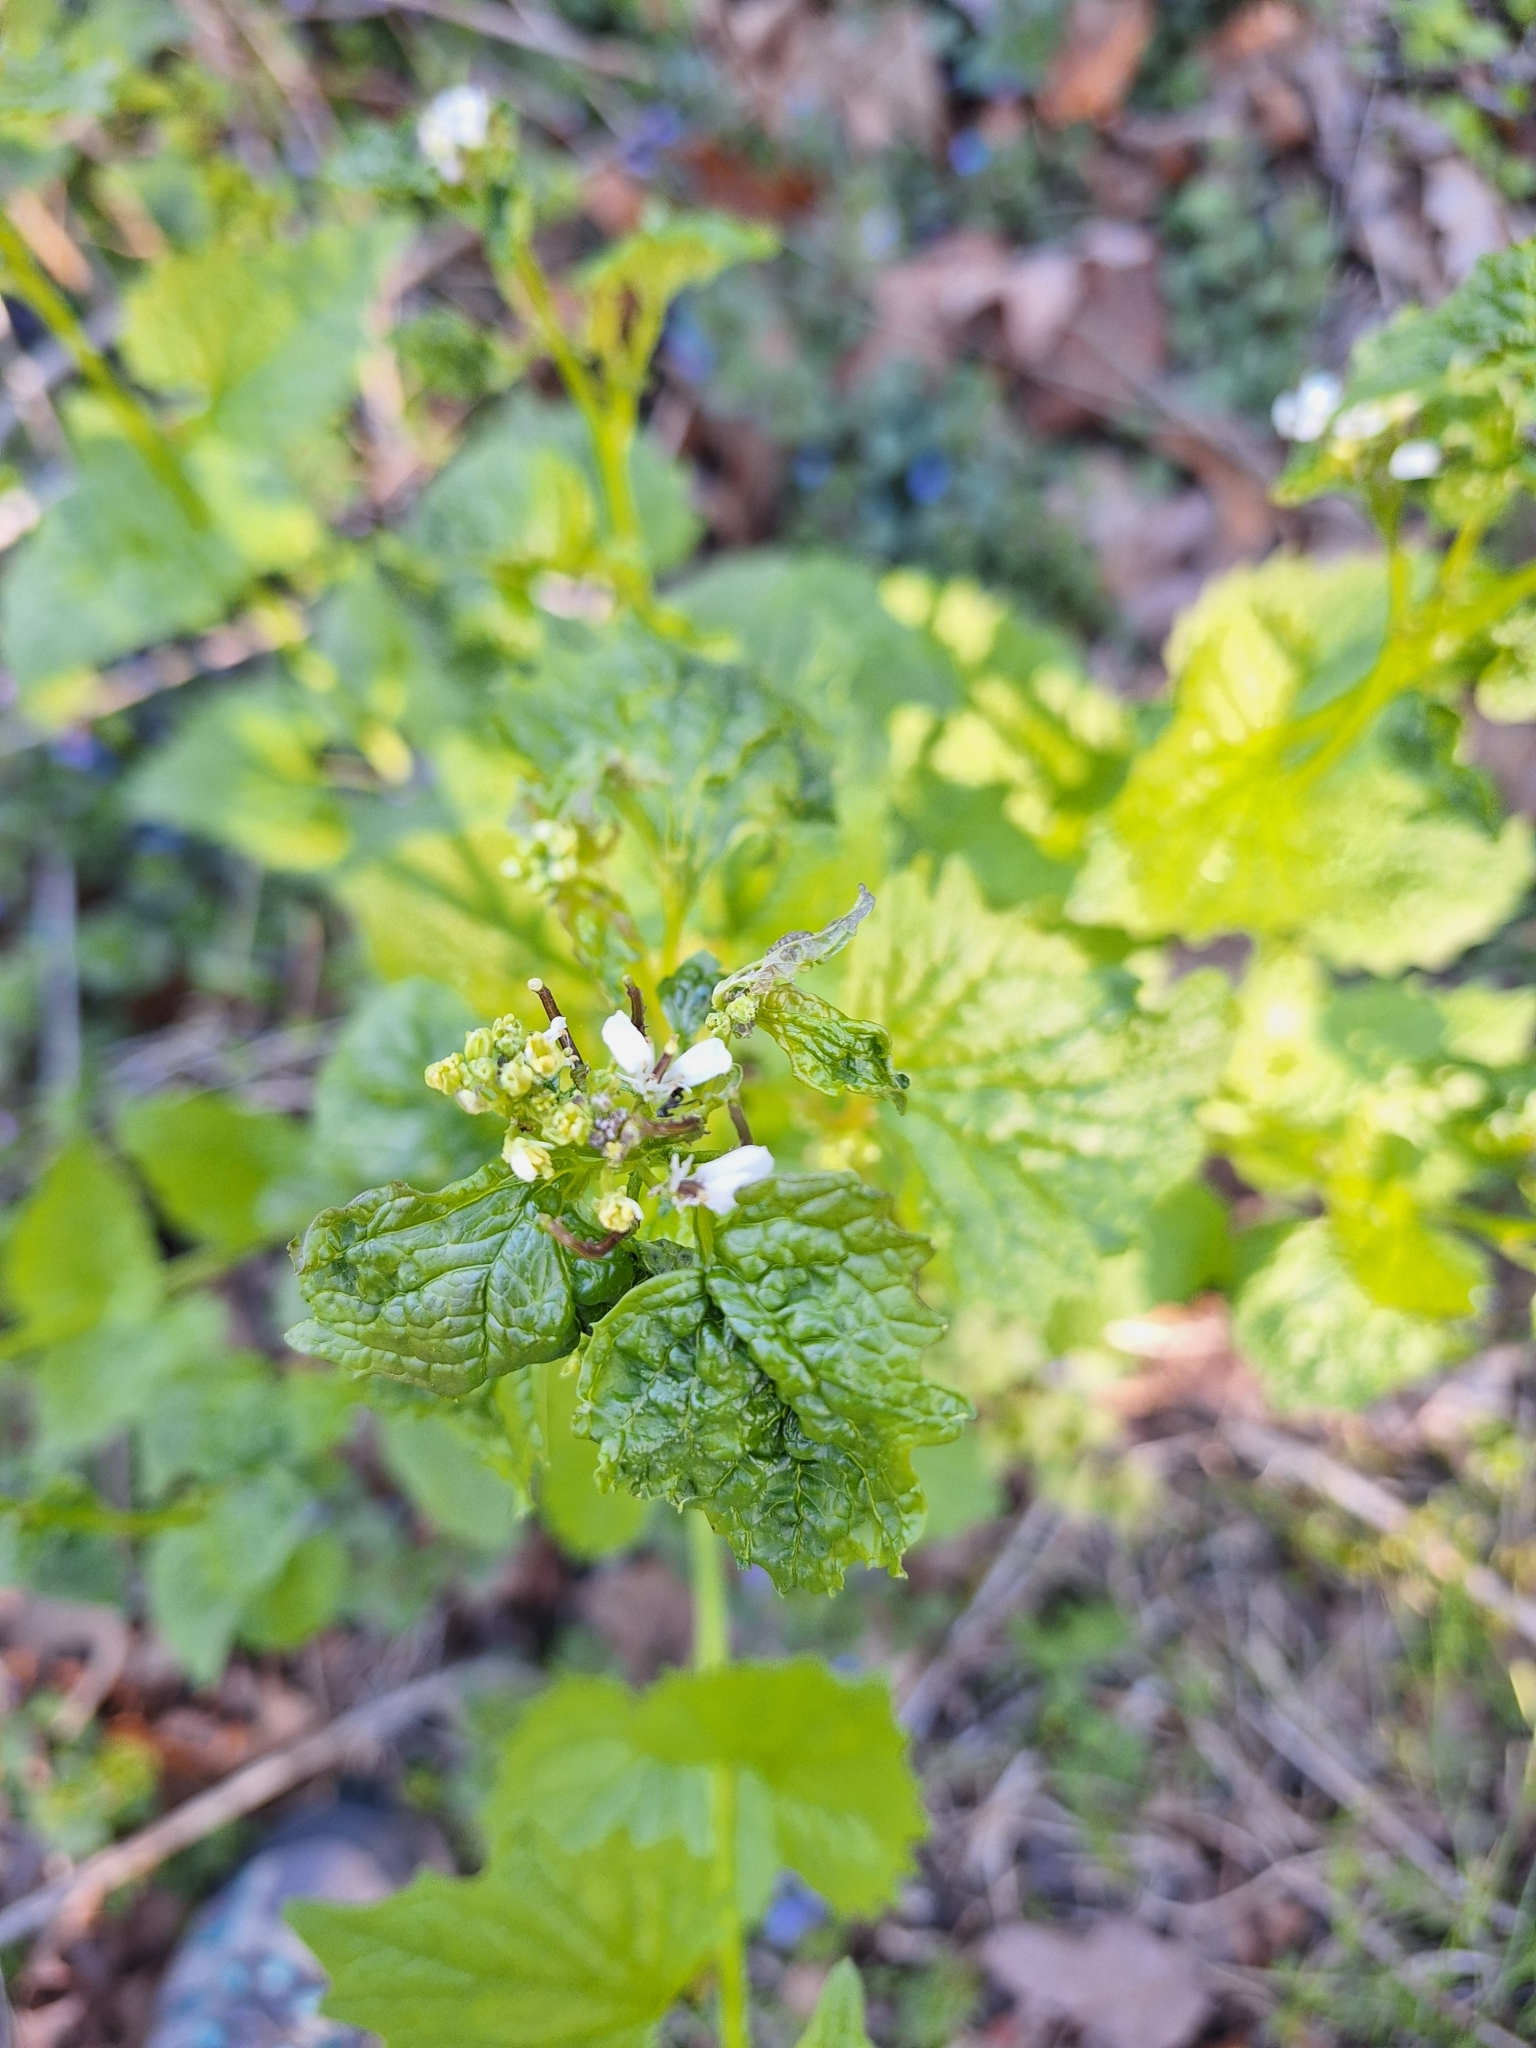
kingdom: Plantae
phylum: Tracheophyta
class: Magnoliopsida
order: Brassicales
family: Brassicaceae
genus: Alliaria
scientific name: Alliaria petiolata
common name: Garlic mustard
